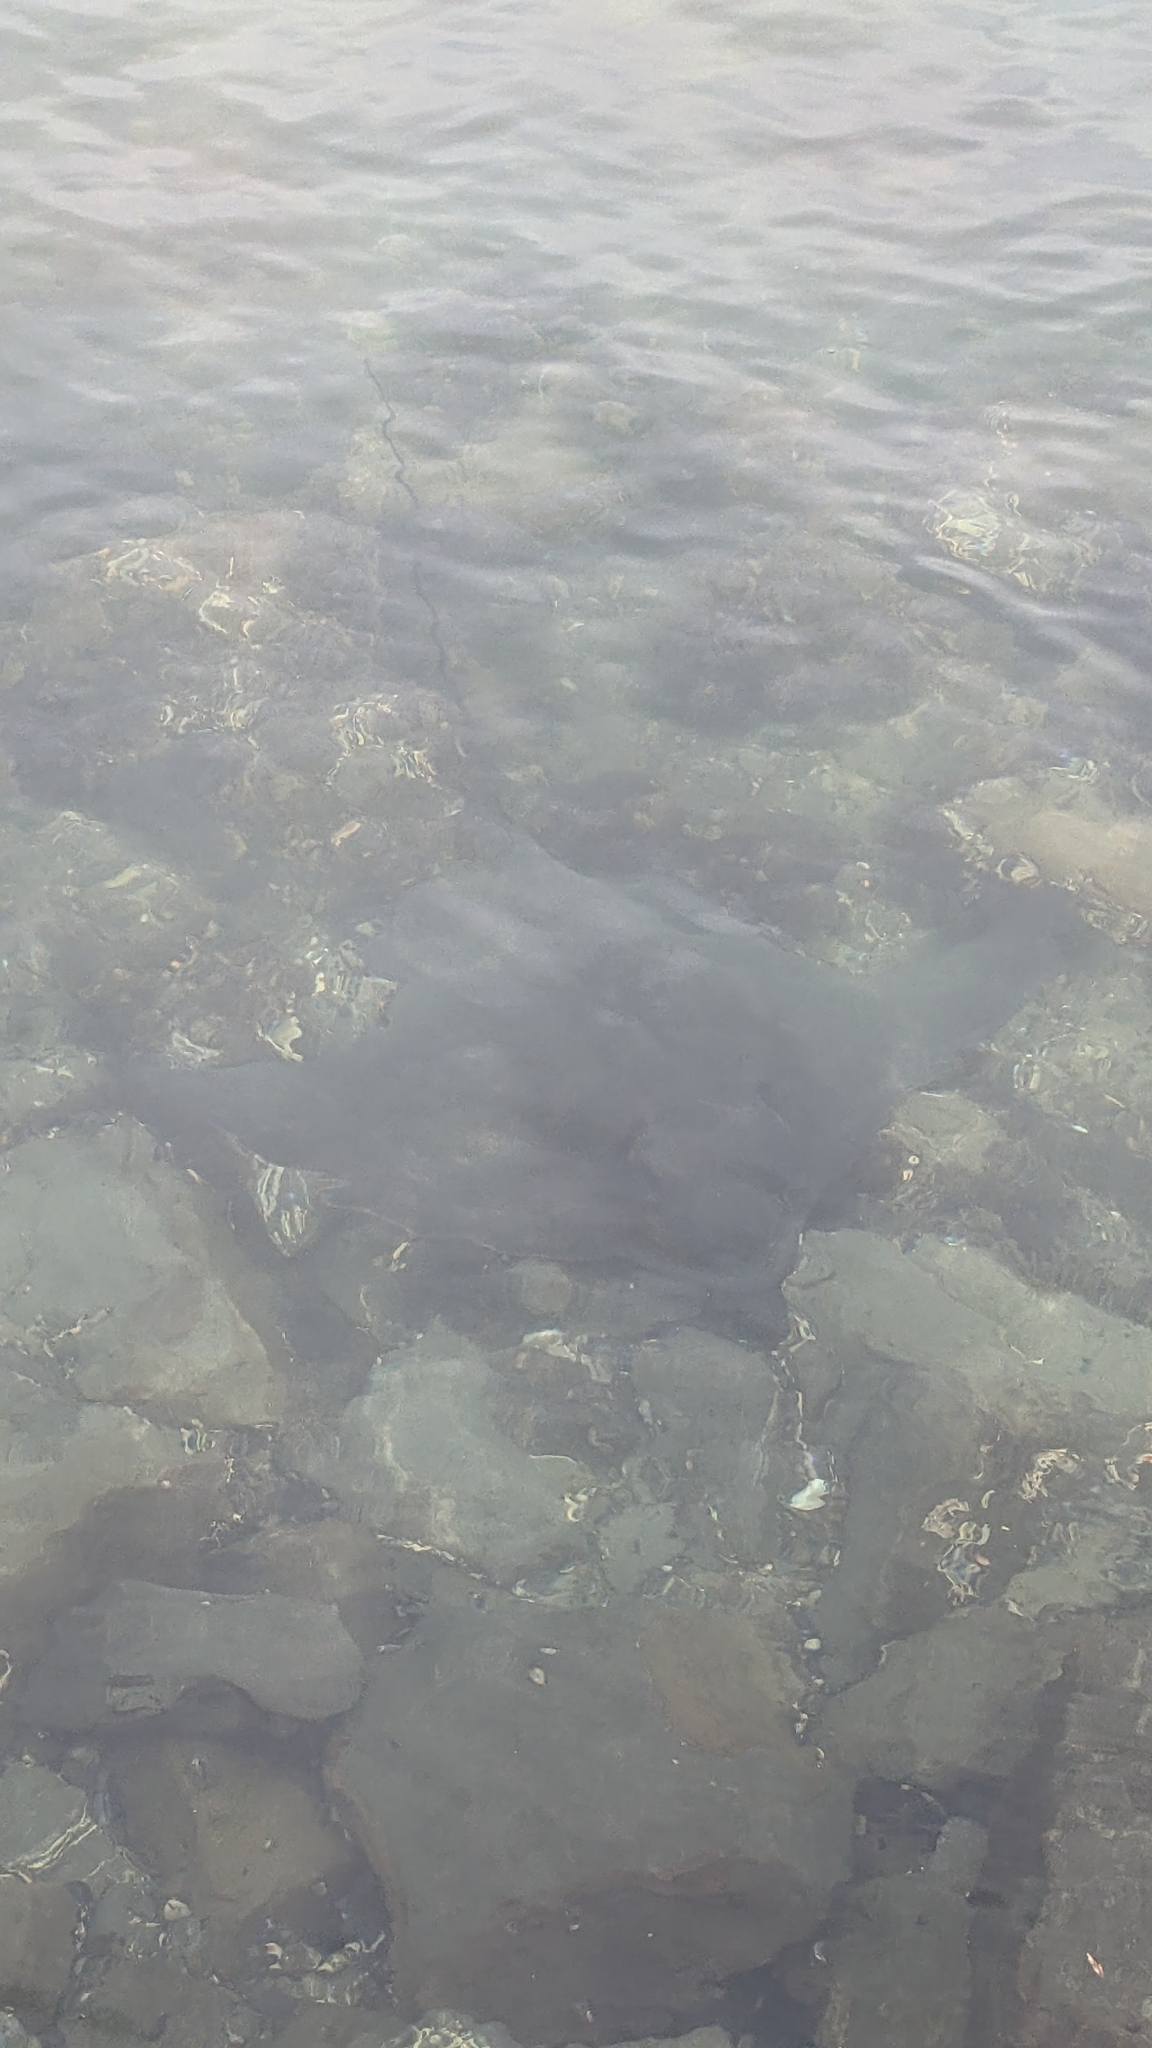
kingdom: Animalia
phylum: Chordata
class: Elasmobranchii
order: Myliobatiformes
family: Myliobatidae
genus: Myliobatis
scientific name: Myliobatis tenuicaudatus
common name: Eagle ray
